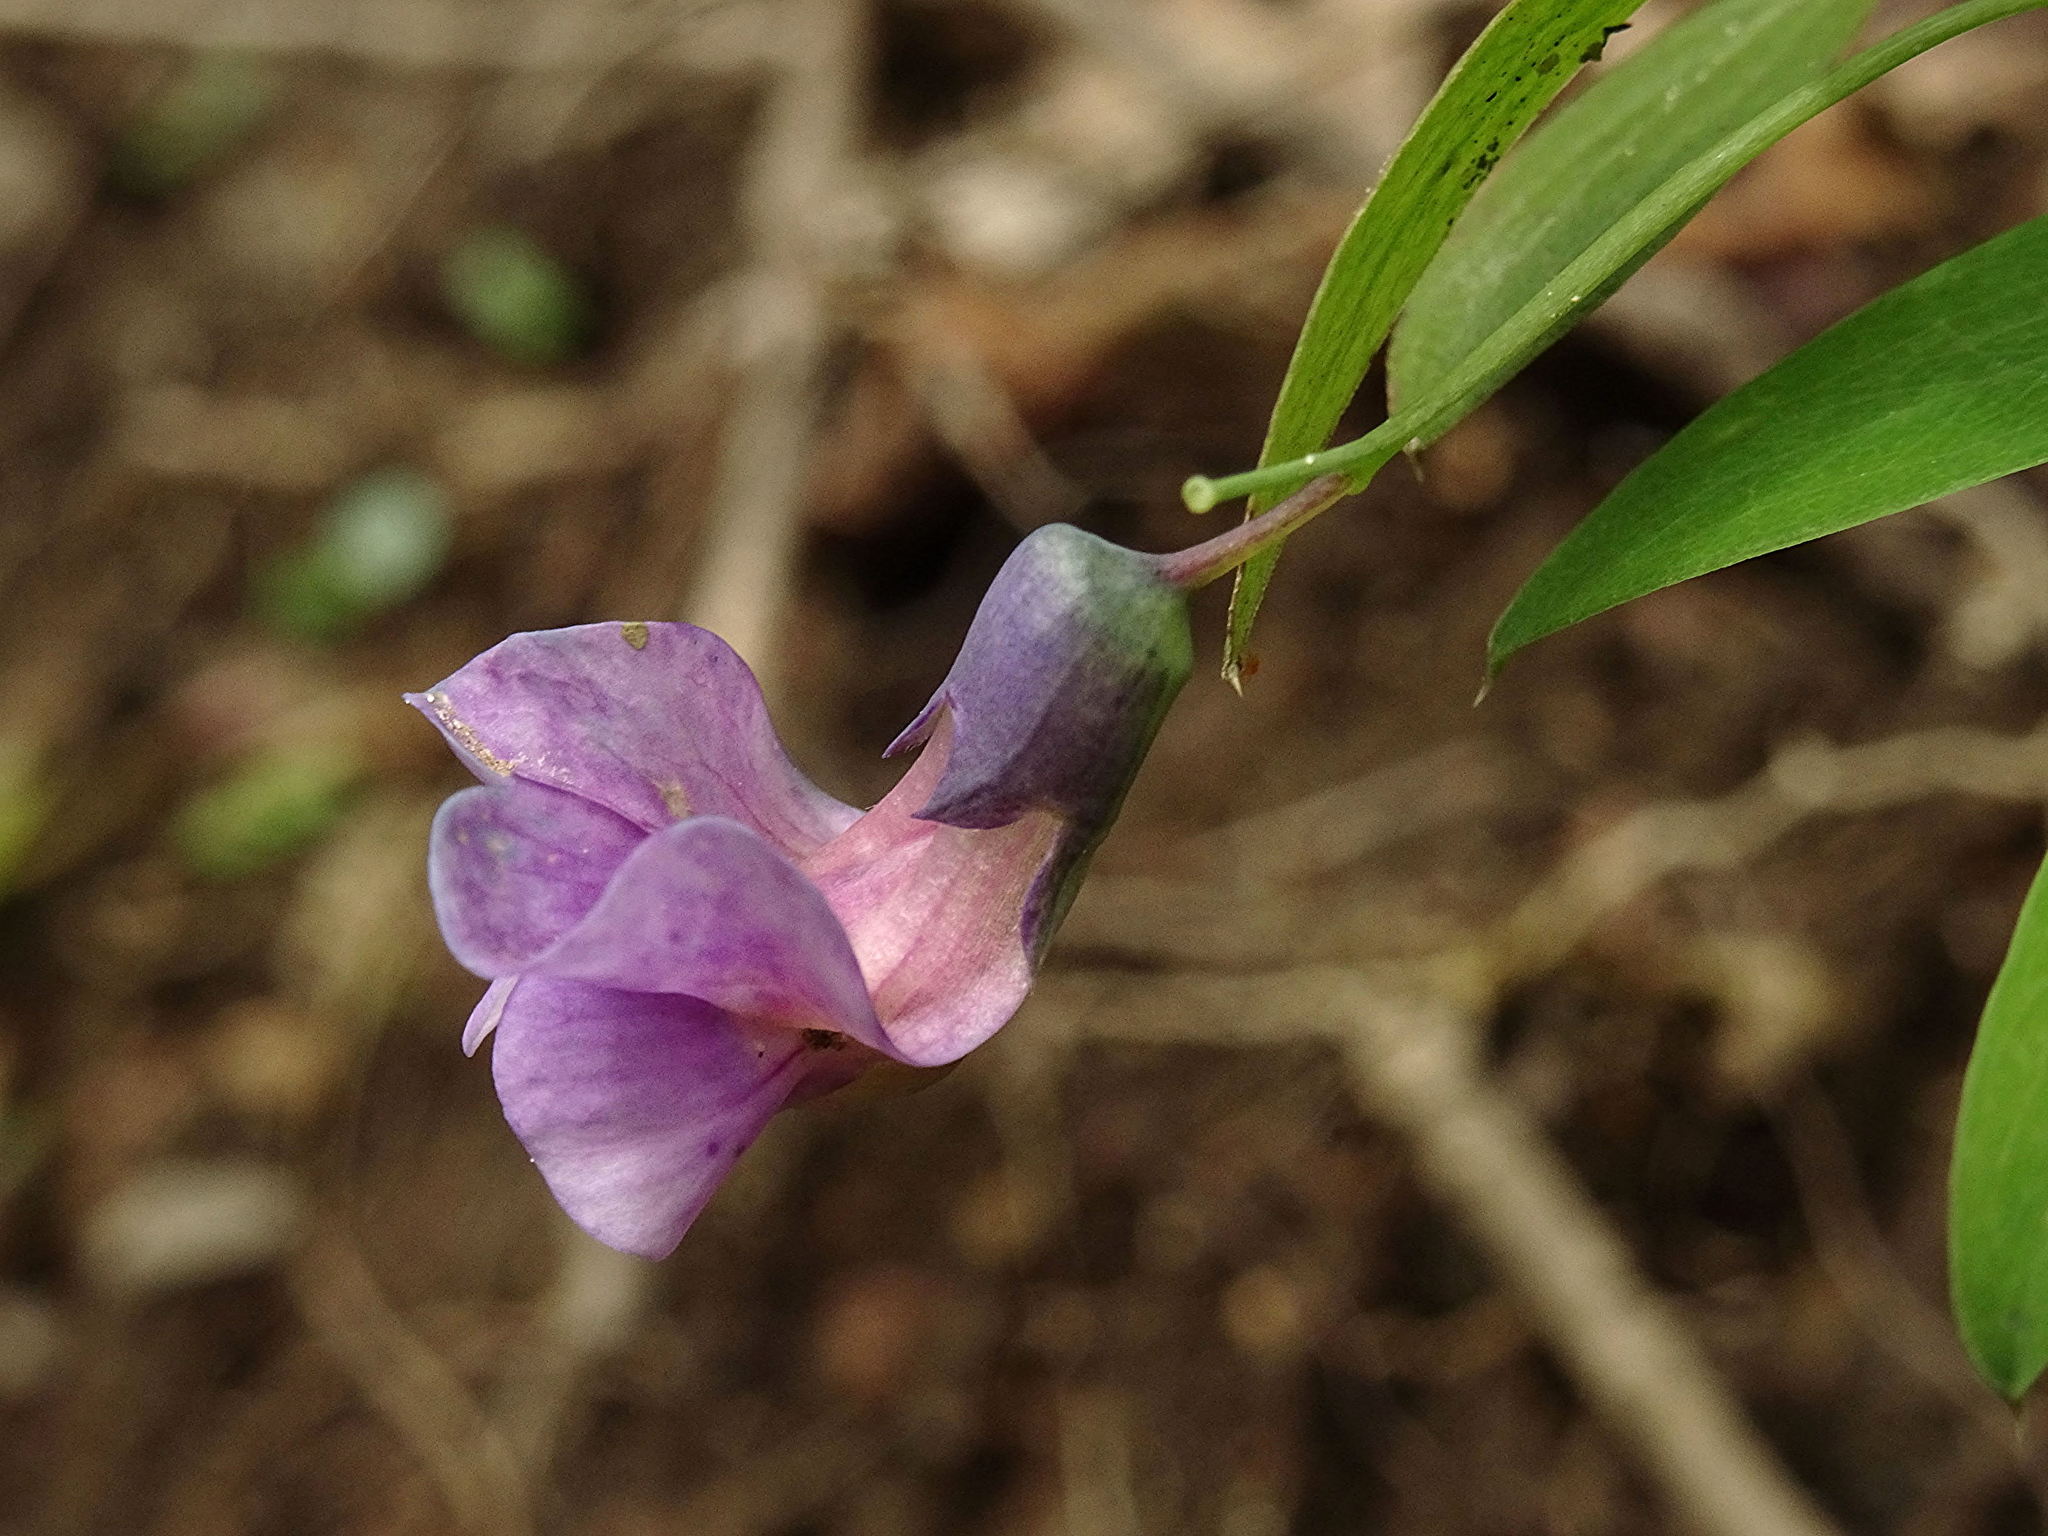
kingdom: Plantae
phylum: Tracheophyta
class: Magnoliopsida
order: Fabales
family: Fabaceae
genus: Lathyrus
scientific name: Lathyrus linifolius
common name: Bitter-vetch
